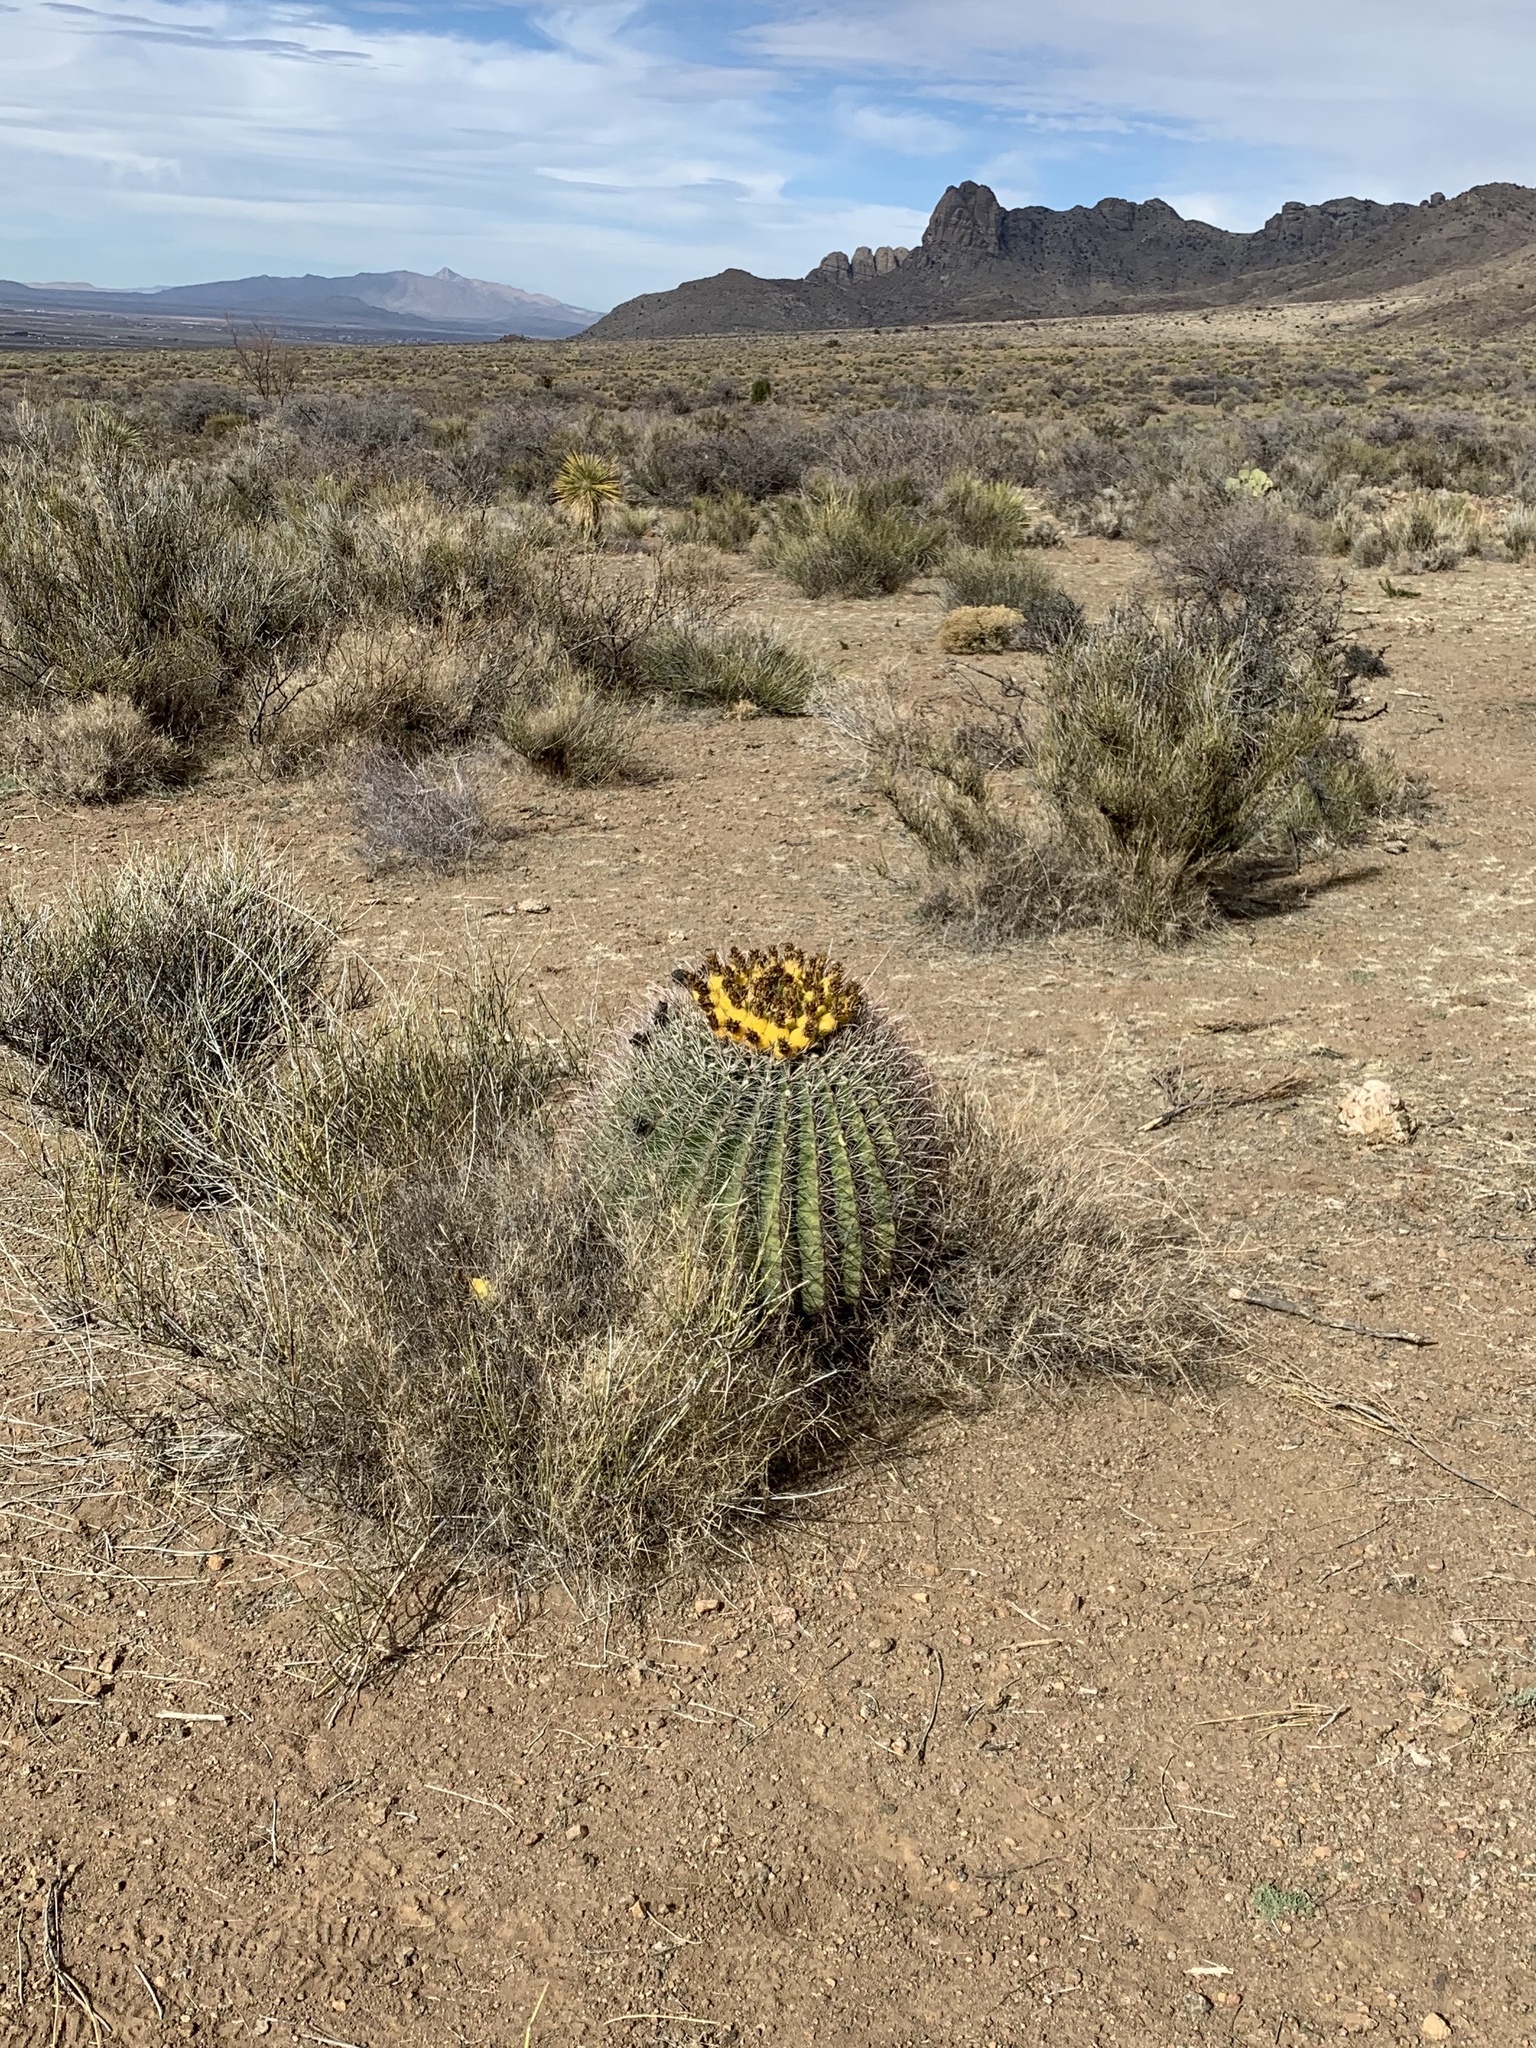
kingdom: Plantae
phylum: Tracheophyta
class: Magnoliopsida
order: Caryophyllales
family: Cactaceae
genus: Ferocactus
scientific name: Ferocactus wislizeni
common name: Candy barrel cactus
